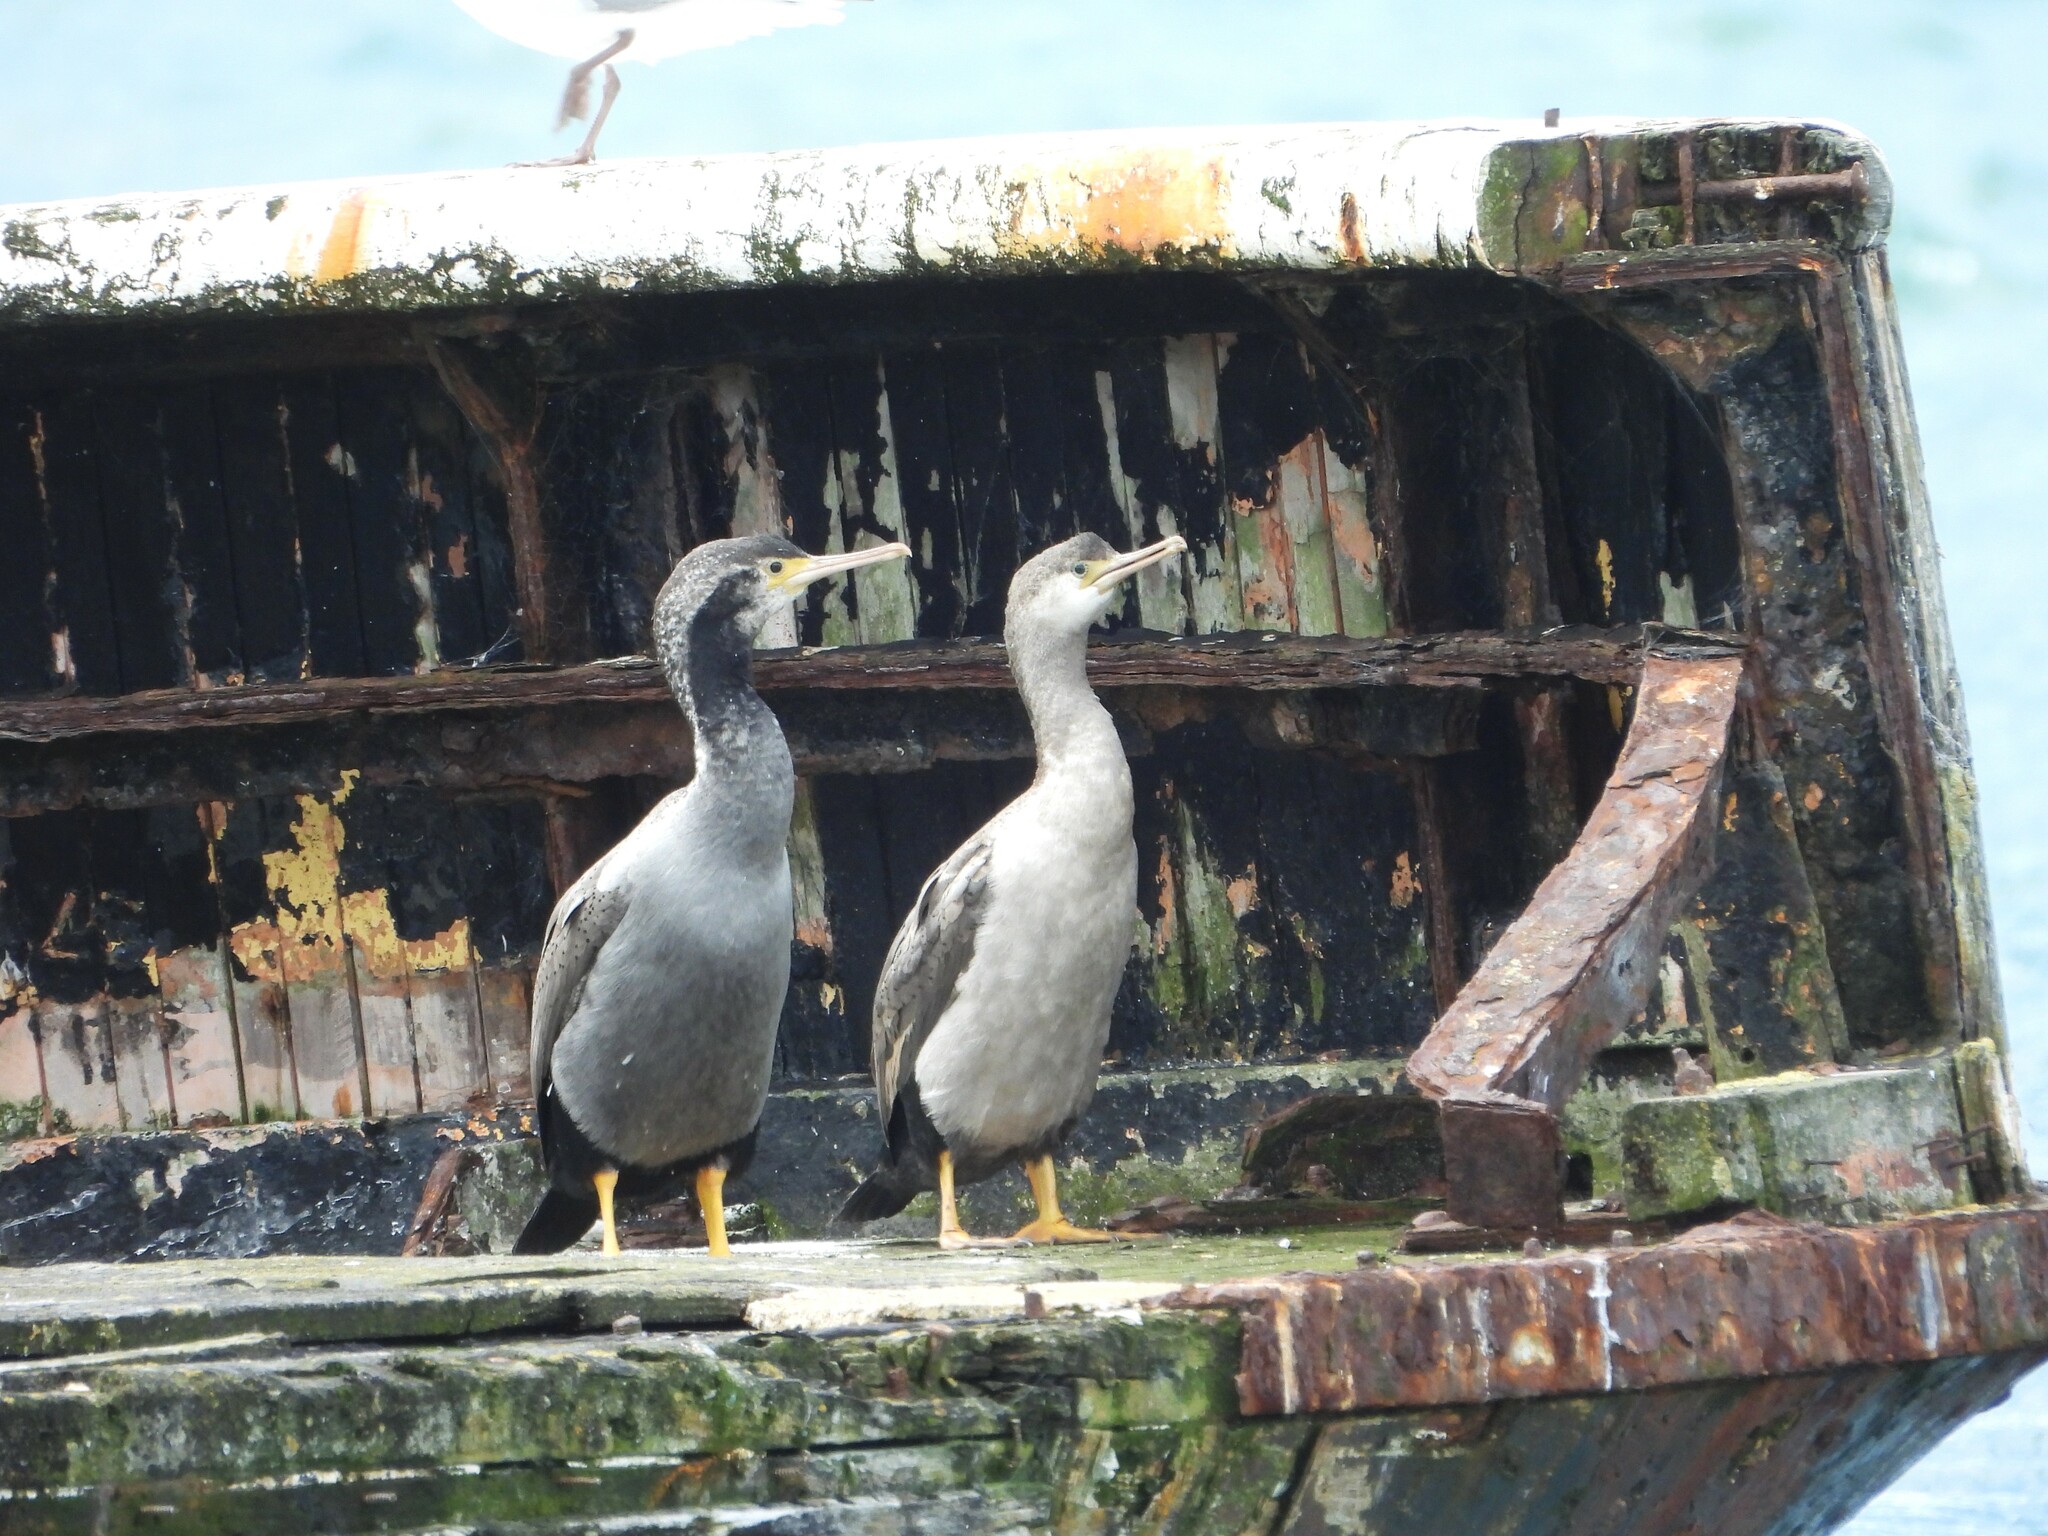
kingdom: Animalia
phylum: Chordata
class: Aves
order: Suliformes
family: Phalacrocoracidae
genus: Phalacrocorax
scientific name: Phalacrocorax punctatus
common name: Spotted shag
